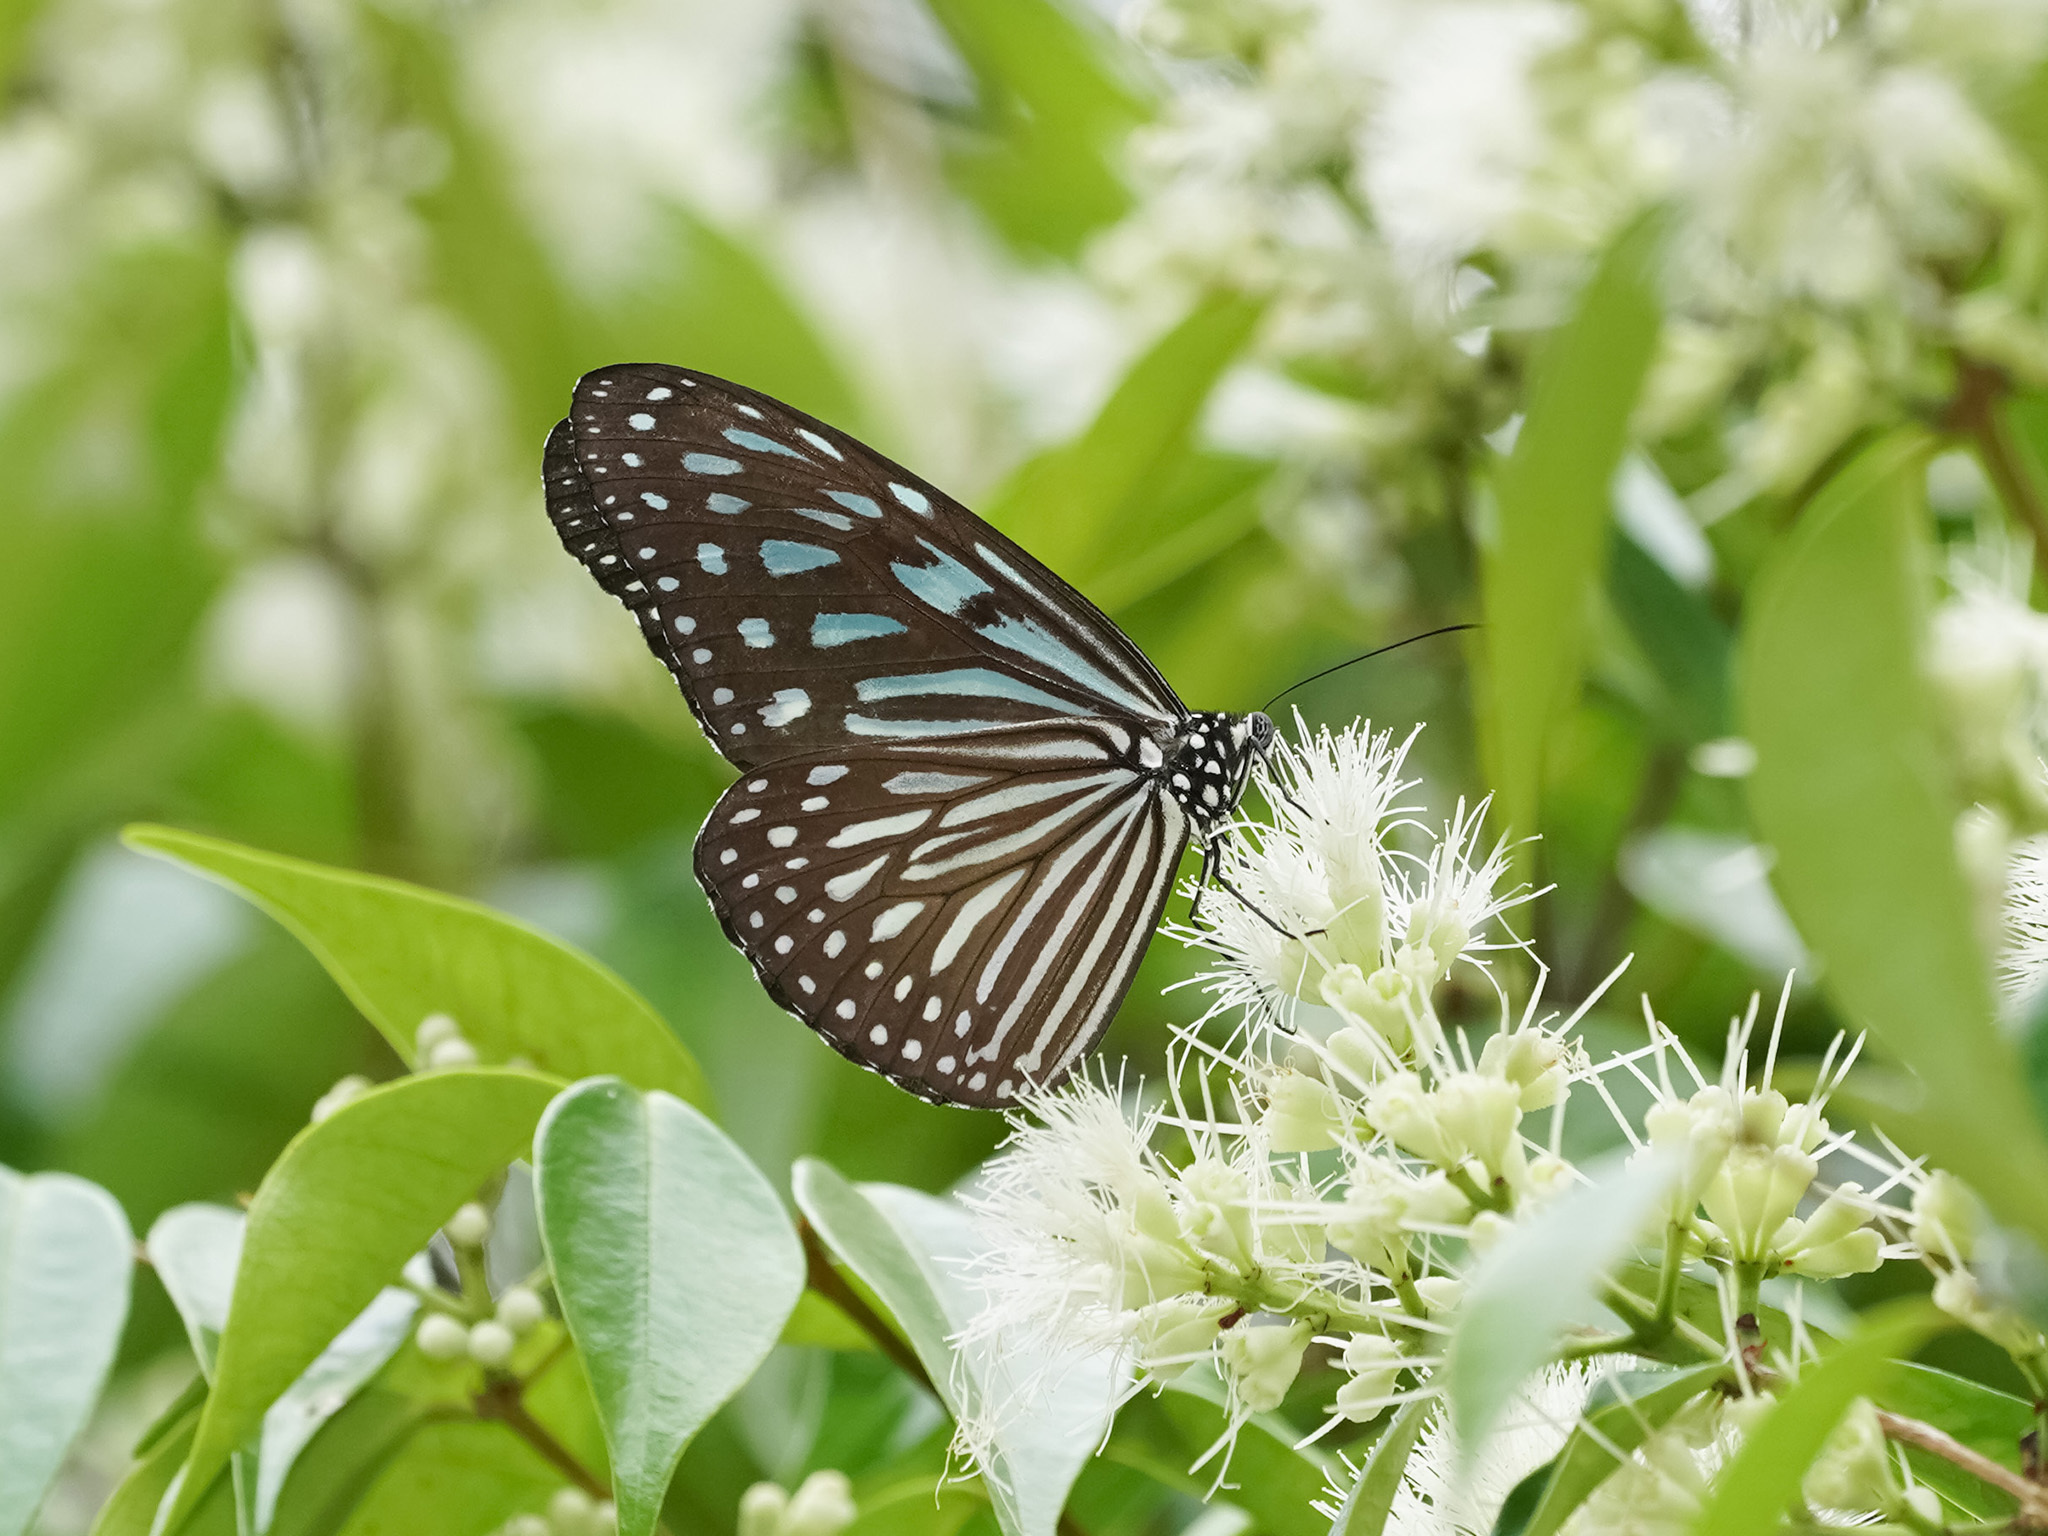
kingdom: Animalia
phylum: Arthropoda
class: Insecta
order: Lepidoptera
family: Nymphalidae
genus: Ideopsis
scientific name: Ideopsis vulgaris
